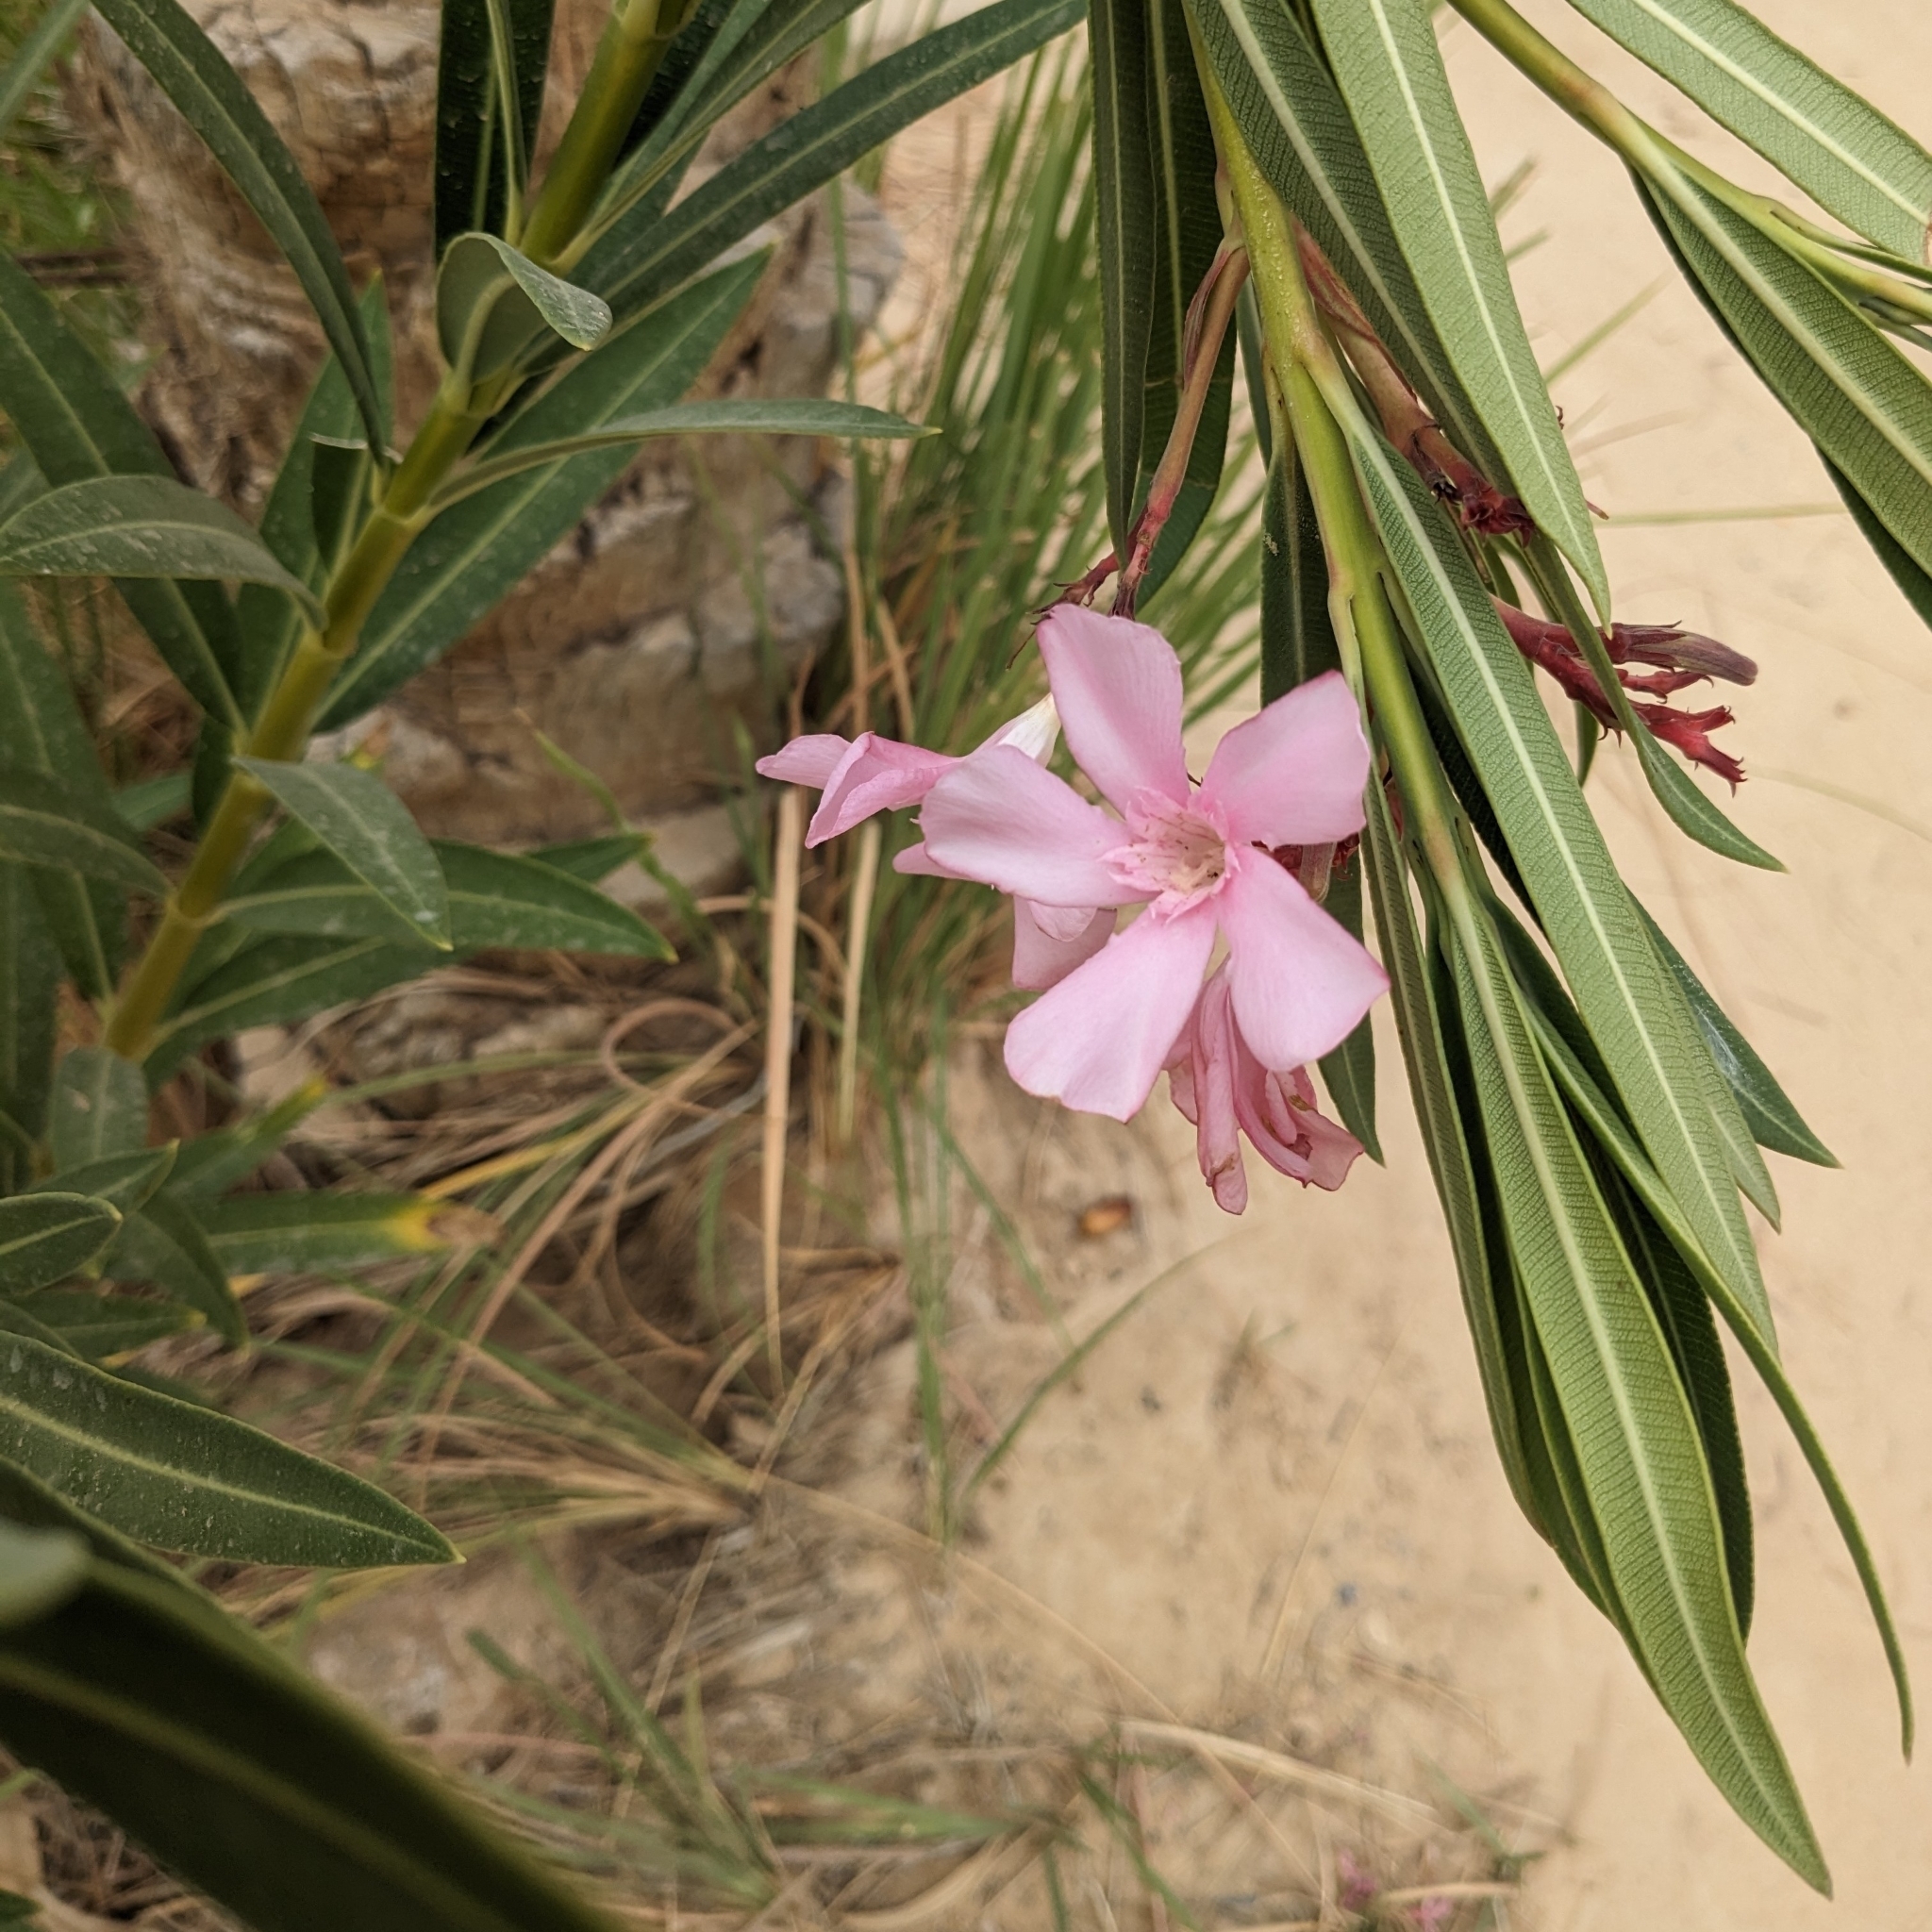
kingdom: Plantae
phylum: Tracheophyta
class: Magnoliopsida
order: Gentianales
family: Apocynaceae
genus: Nerium
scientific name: Nerium oleander
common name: Oleander
